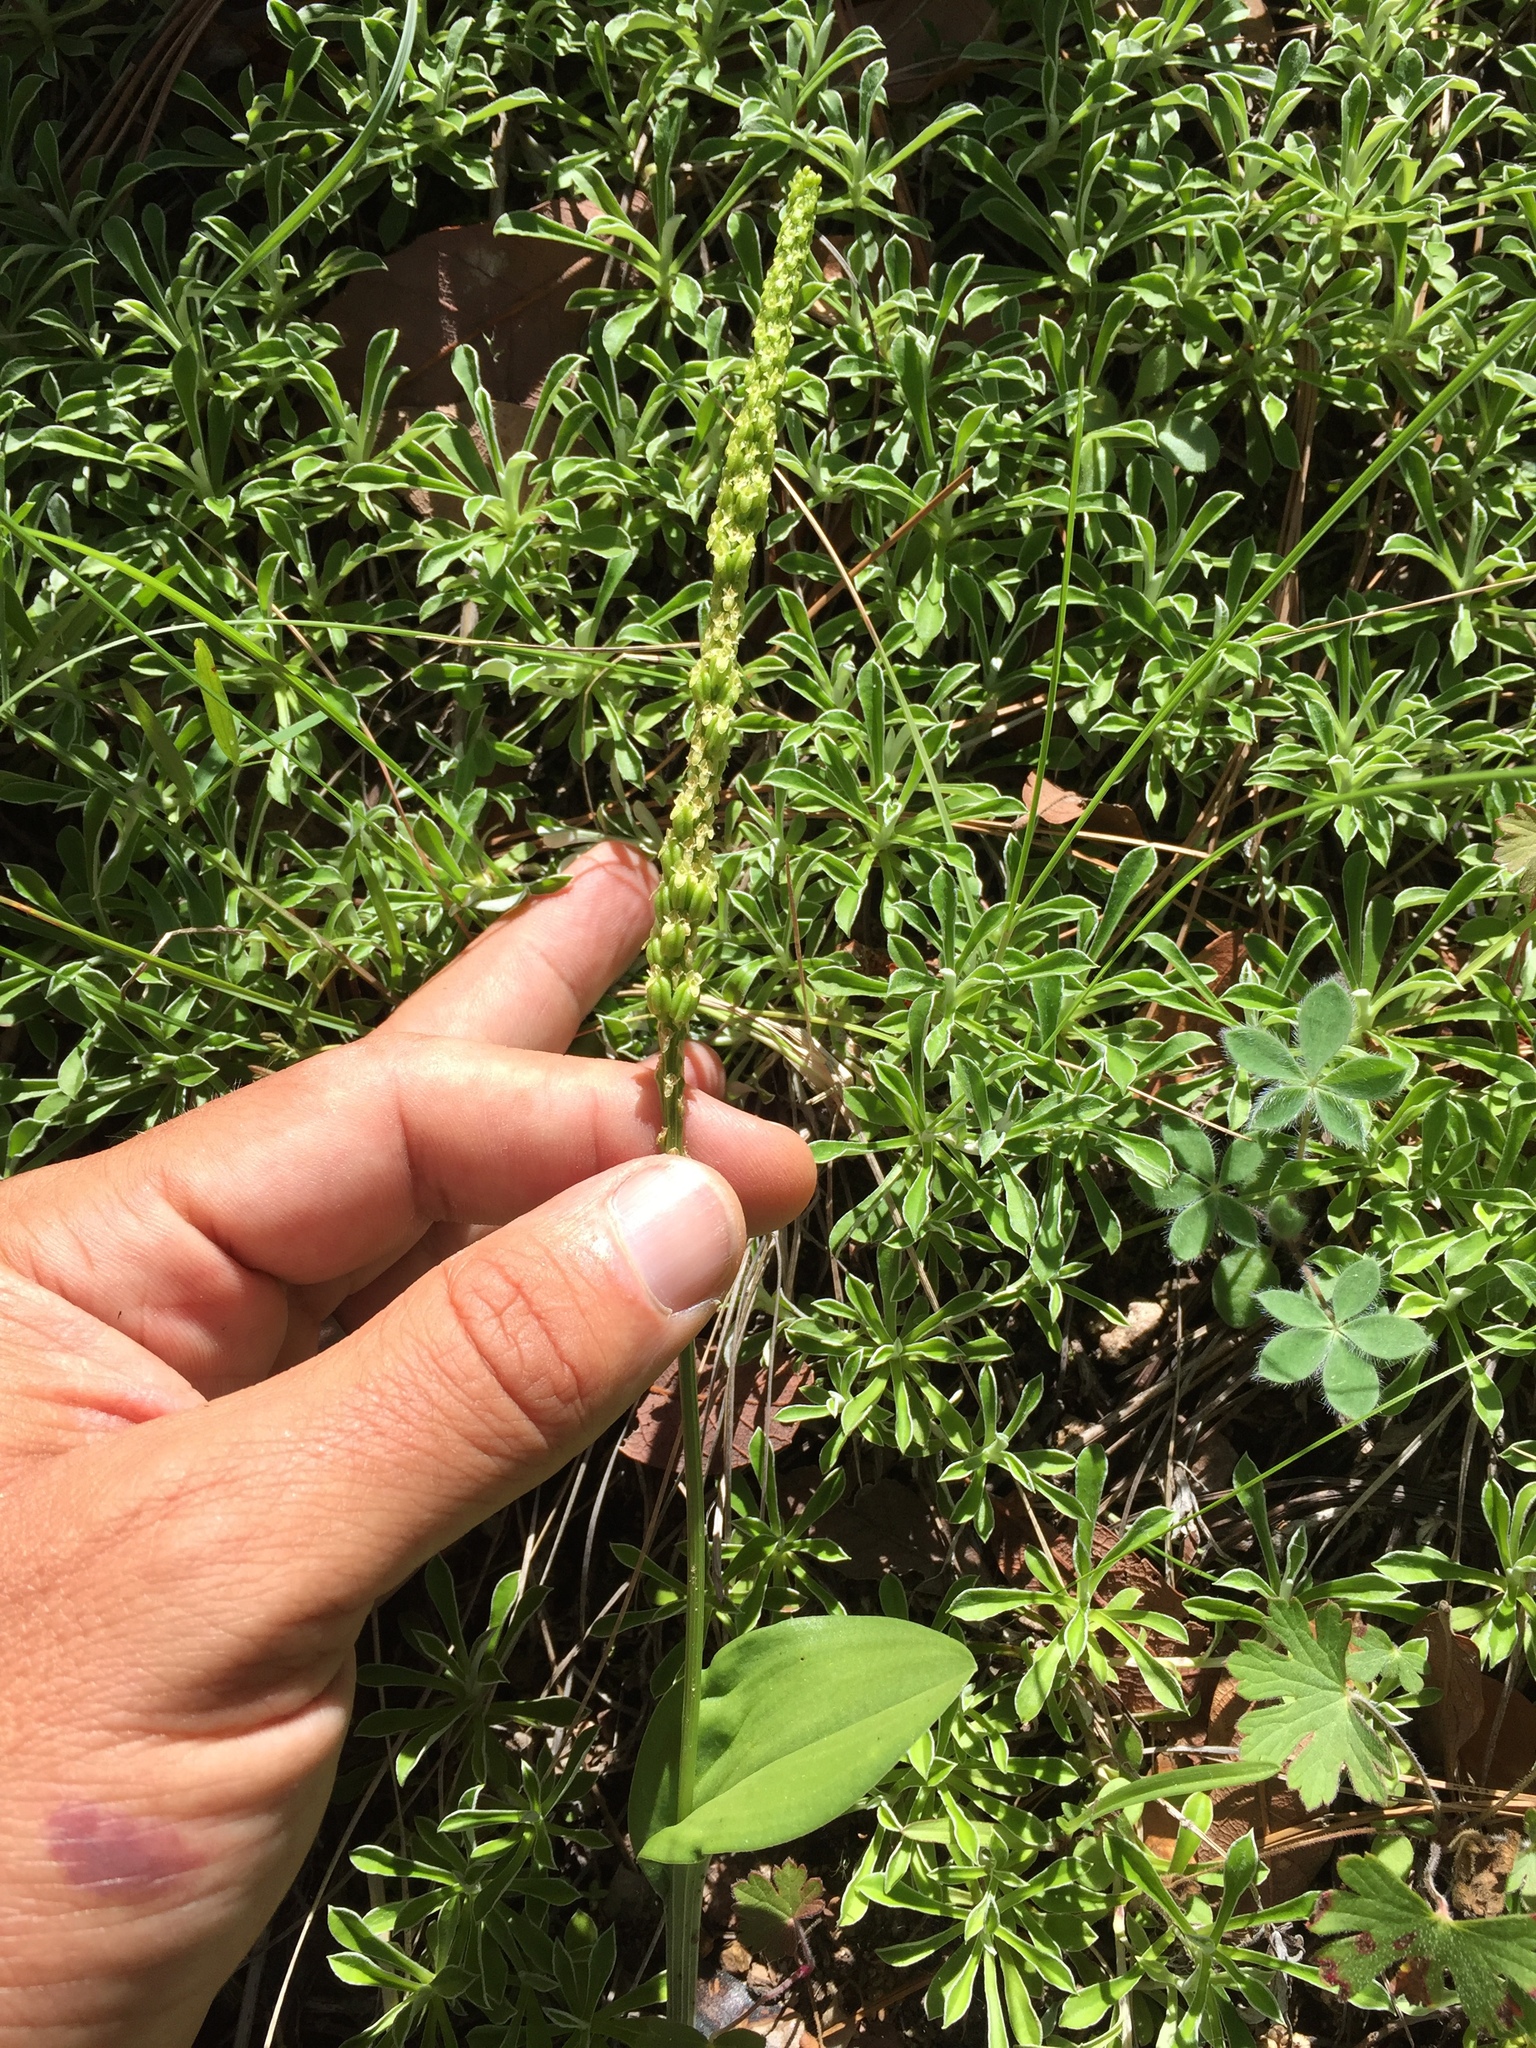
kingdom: Plantae
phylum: Tracheophyta
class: Liliopsida
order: Asparagales
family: Orchidaceae
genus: Malaxis
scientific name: Malaxis macrostachya
